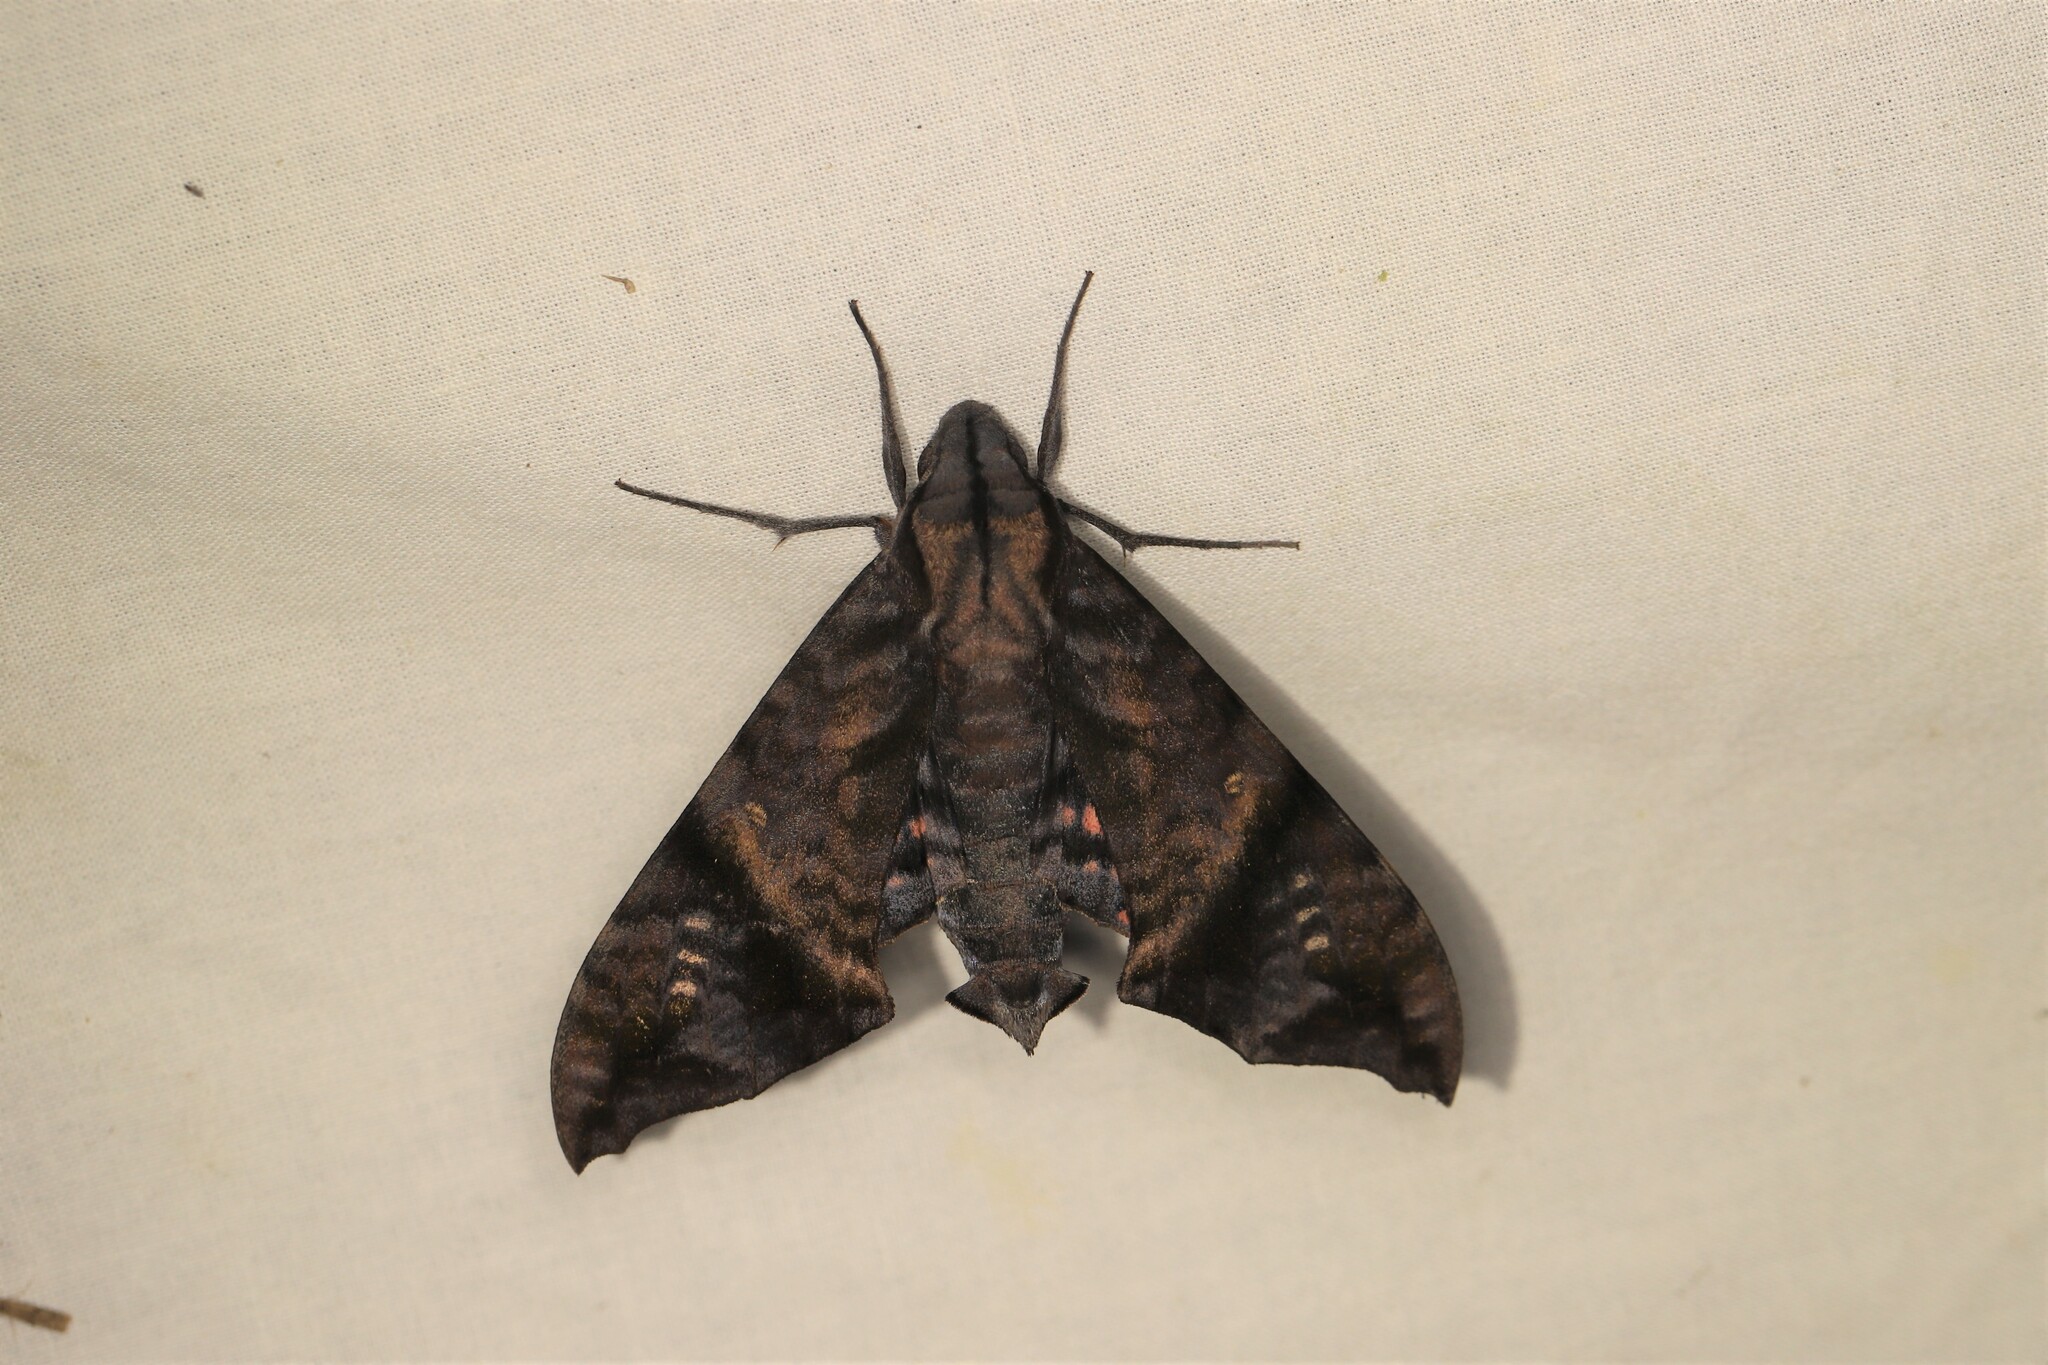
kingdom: Animalia
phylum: Arthropoda
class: Insecta
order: Lepidoptera
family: Sphingidae
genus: Nyceryx
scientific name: Nyceryx hyposticta
